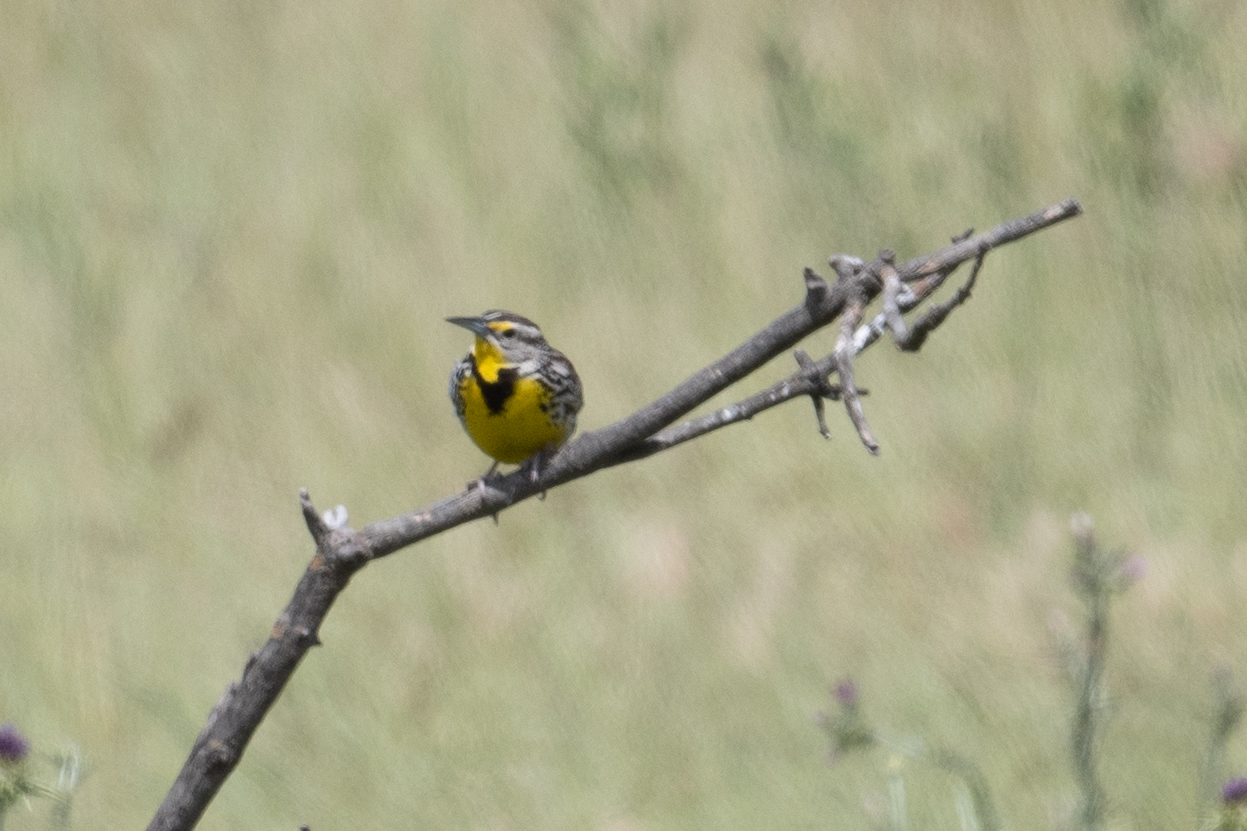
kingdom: Animalia
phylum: Chordata
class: Aves
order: Passeriformes
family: Icteridae
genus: Sturnella
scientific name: Sturnella neglecta
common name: Western meadowlark
